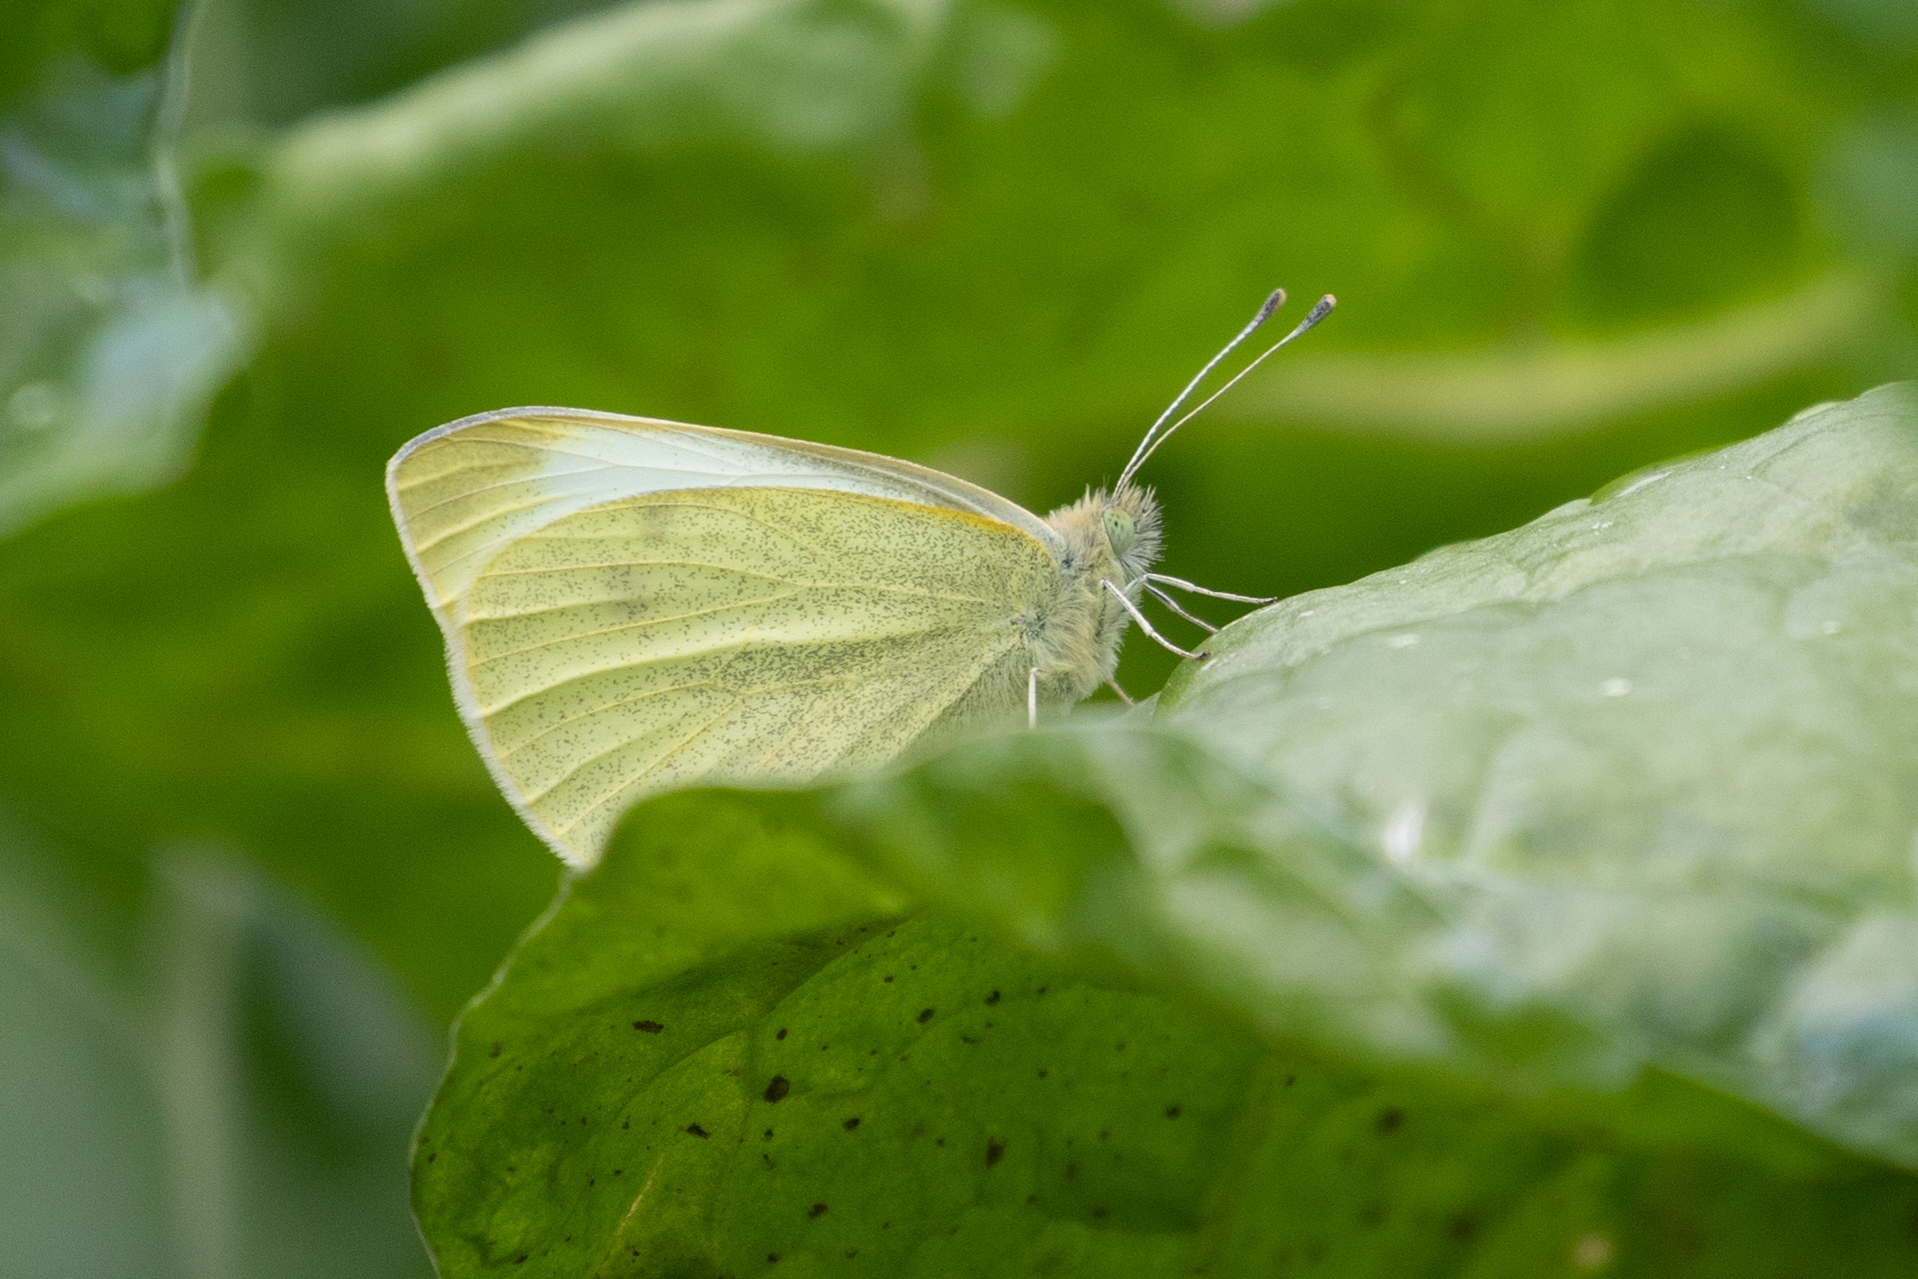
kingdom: Animalia
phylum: Arthropoda
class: Insecta
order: Lepidoptera
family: Pieridae
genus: Pieris
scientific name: Pieris rapae
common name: Small white
